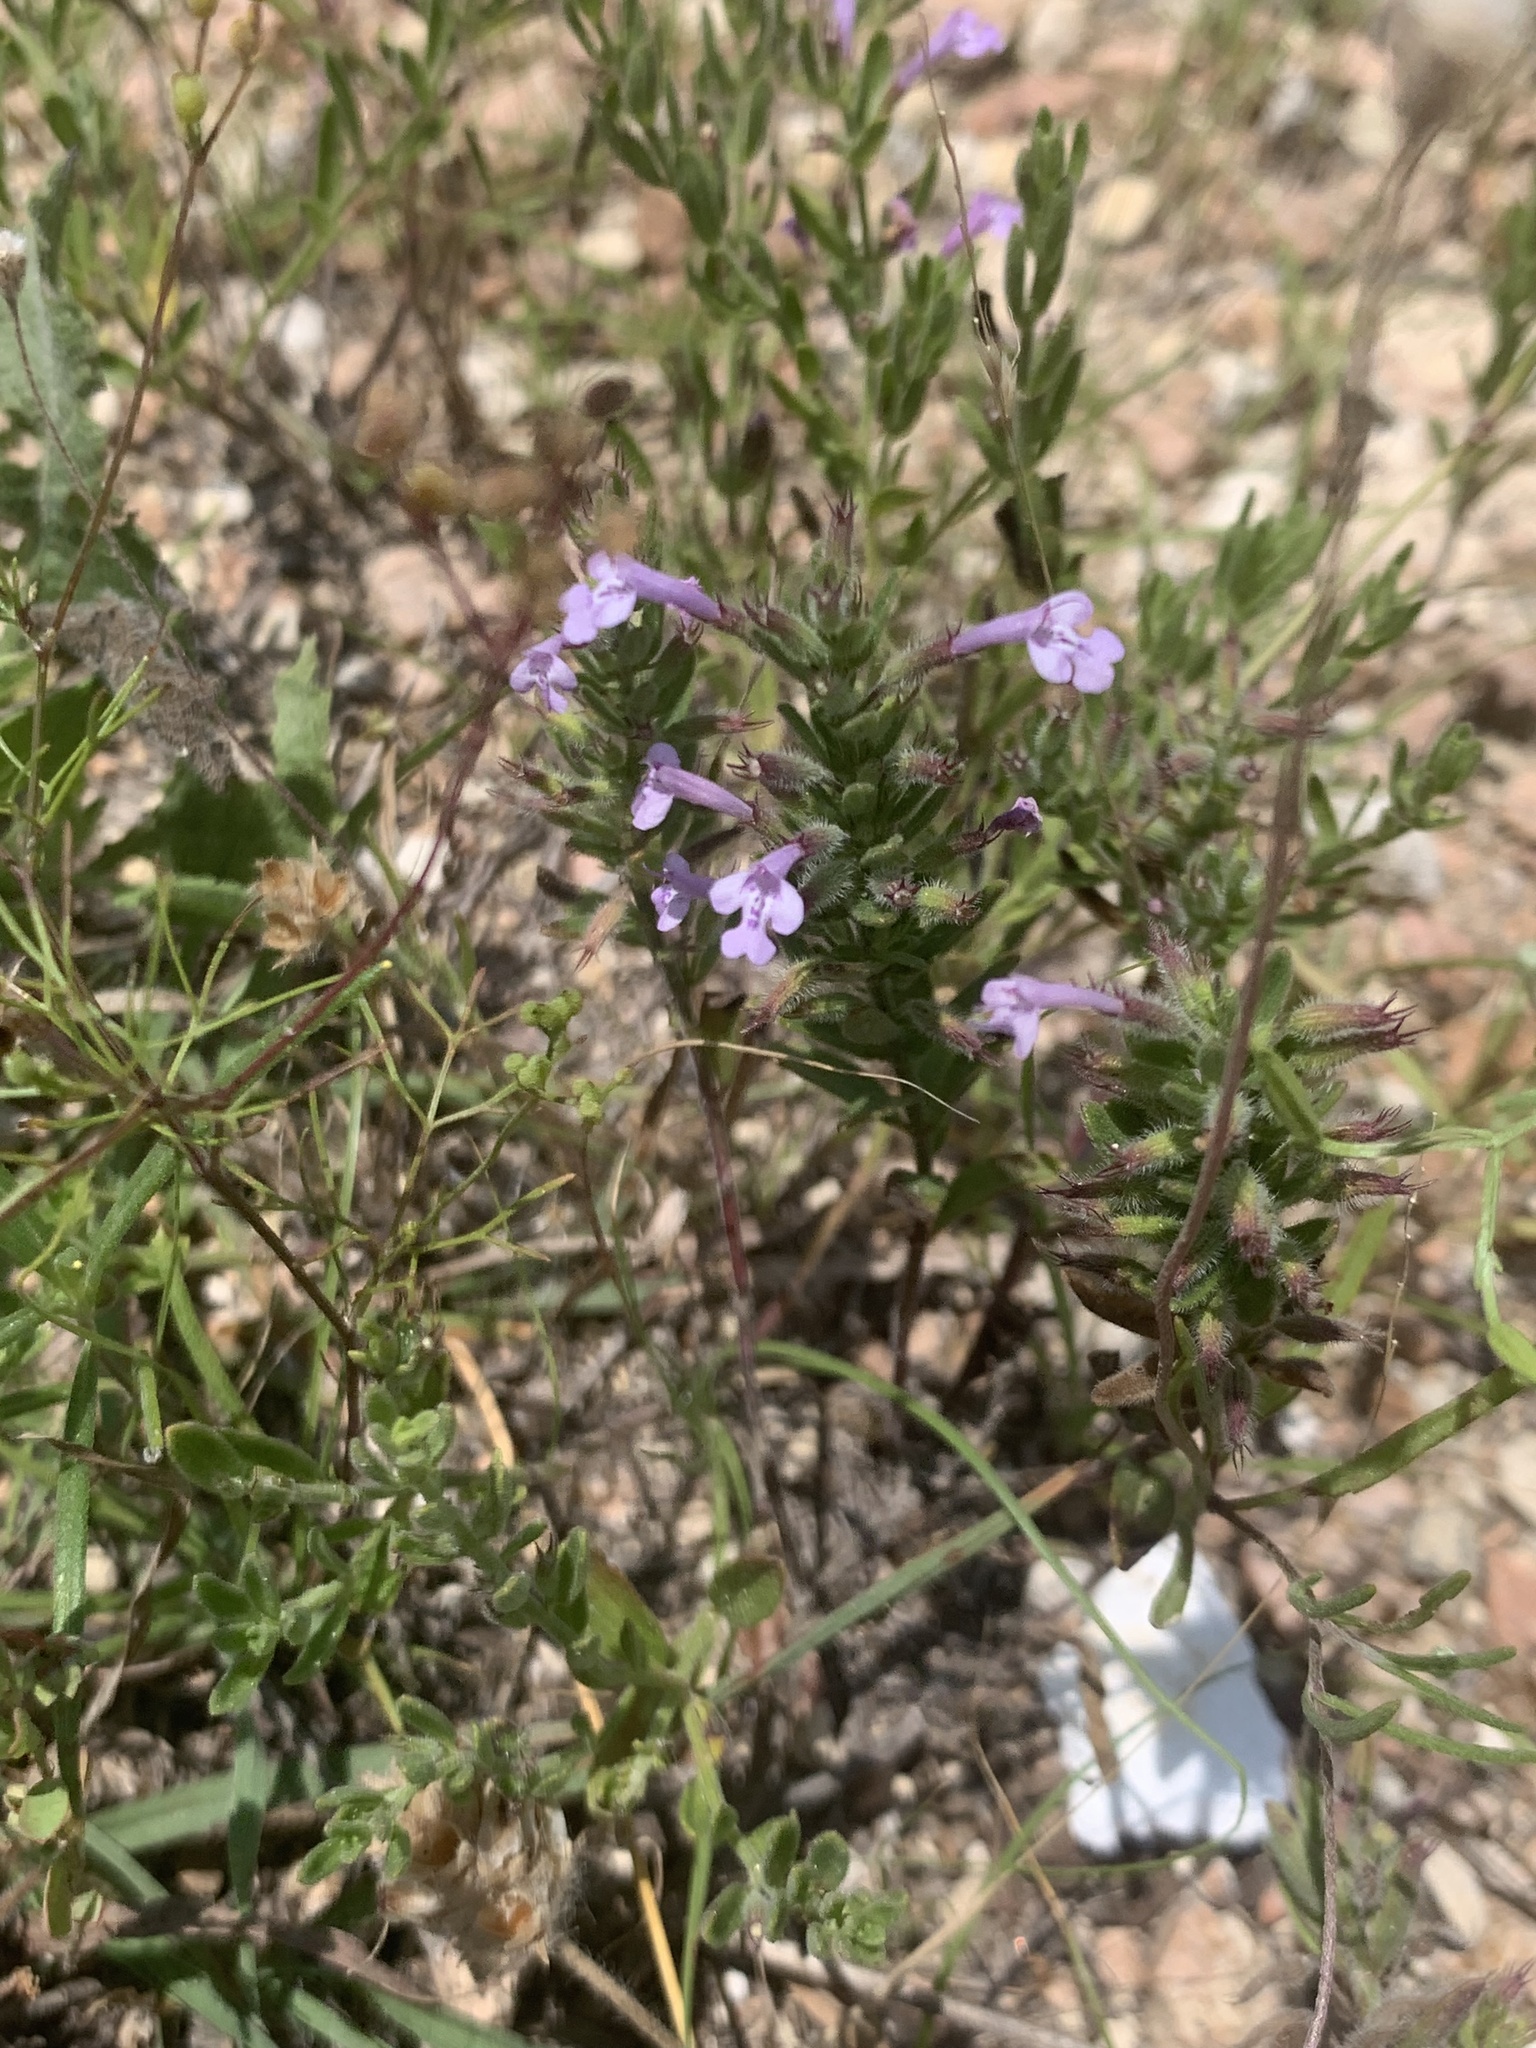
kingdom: Plantae
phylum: Tracheophyta
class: Magnoliopsida
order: Lamiales
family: Lamiaceae
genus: Hedeoma
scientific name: Hedeoma reverchonii
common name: Reverchon's false penny-royal
